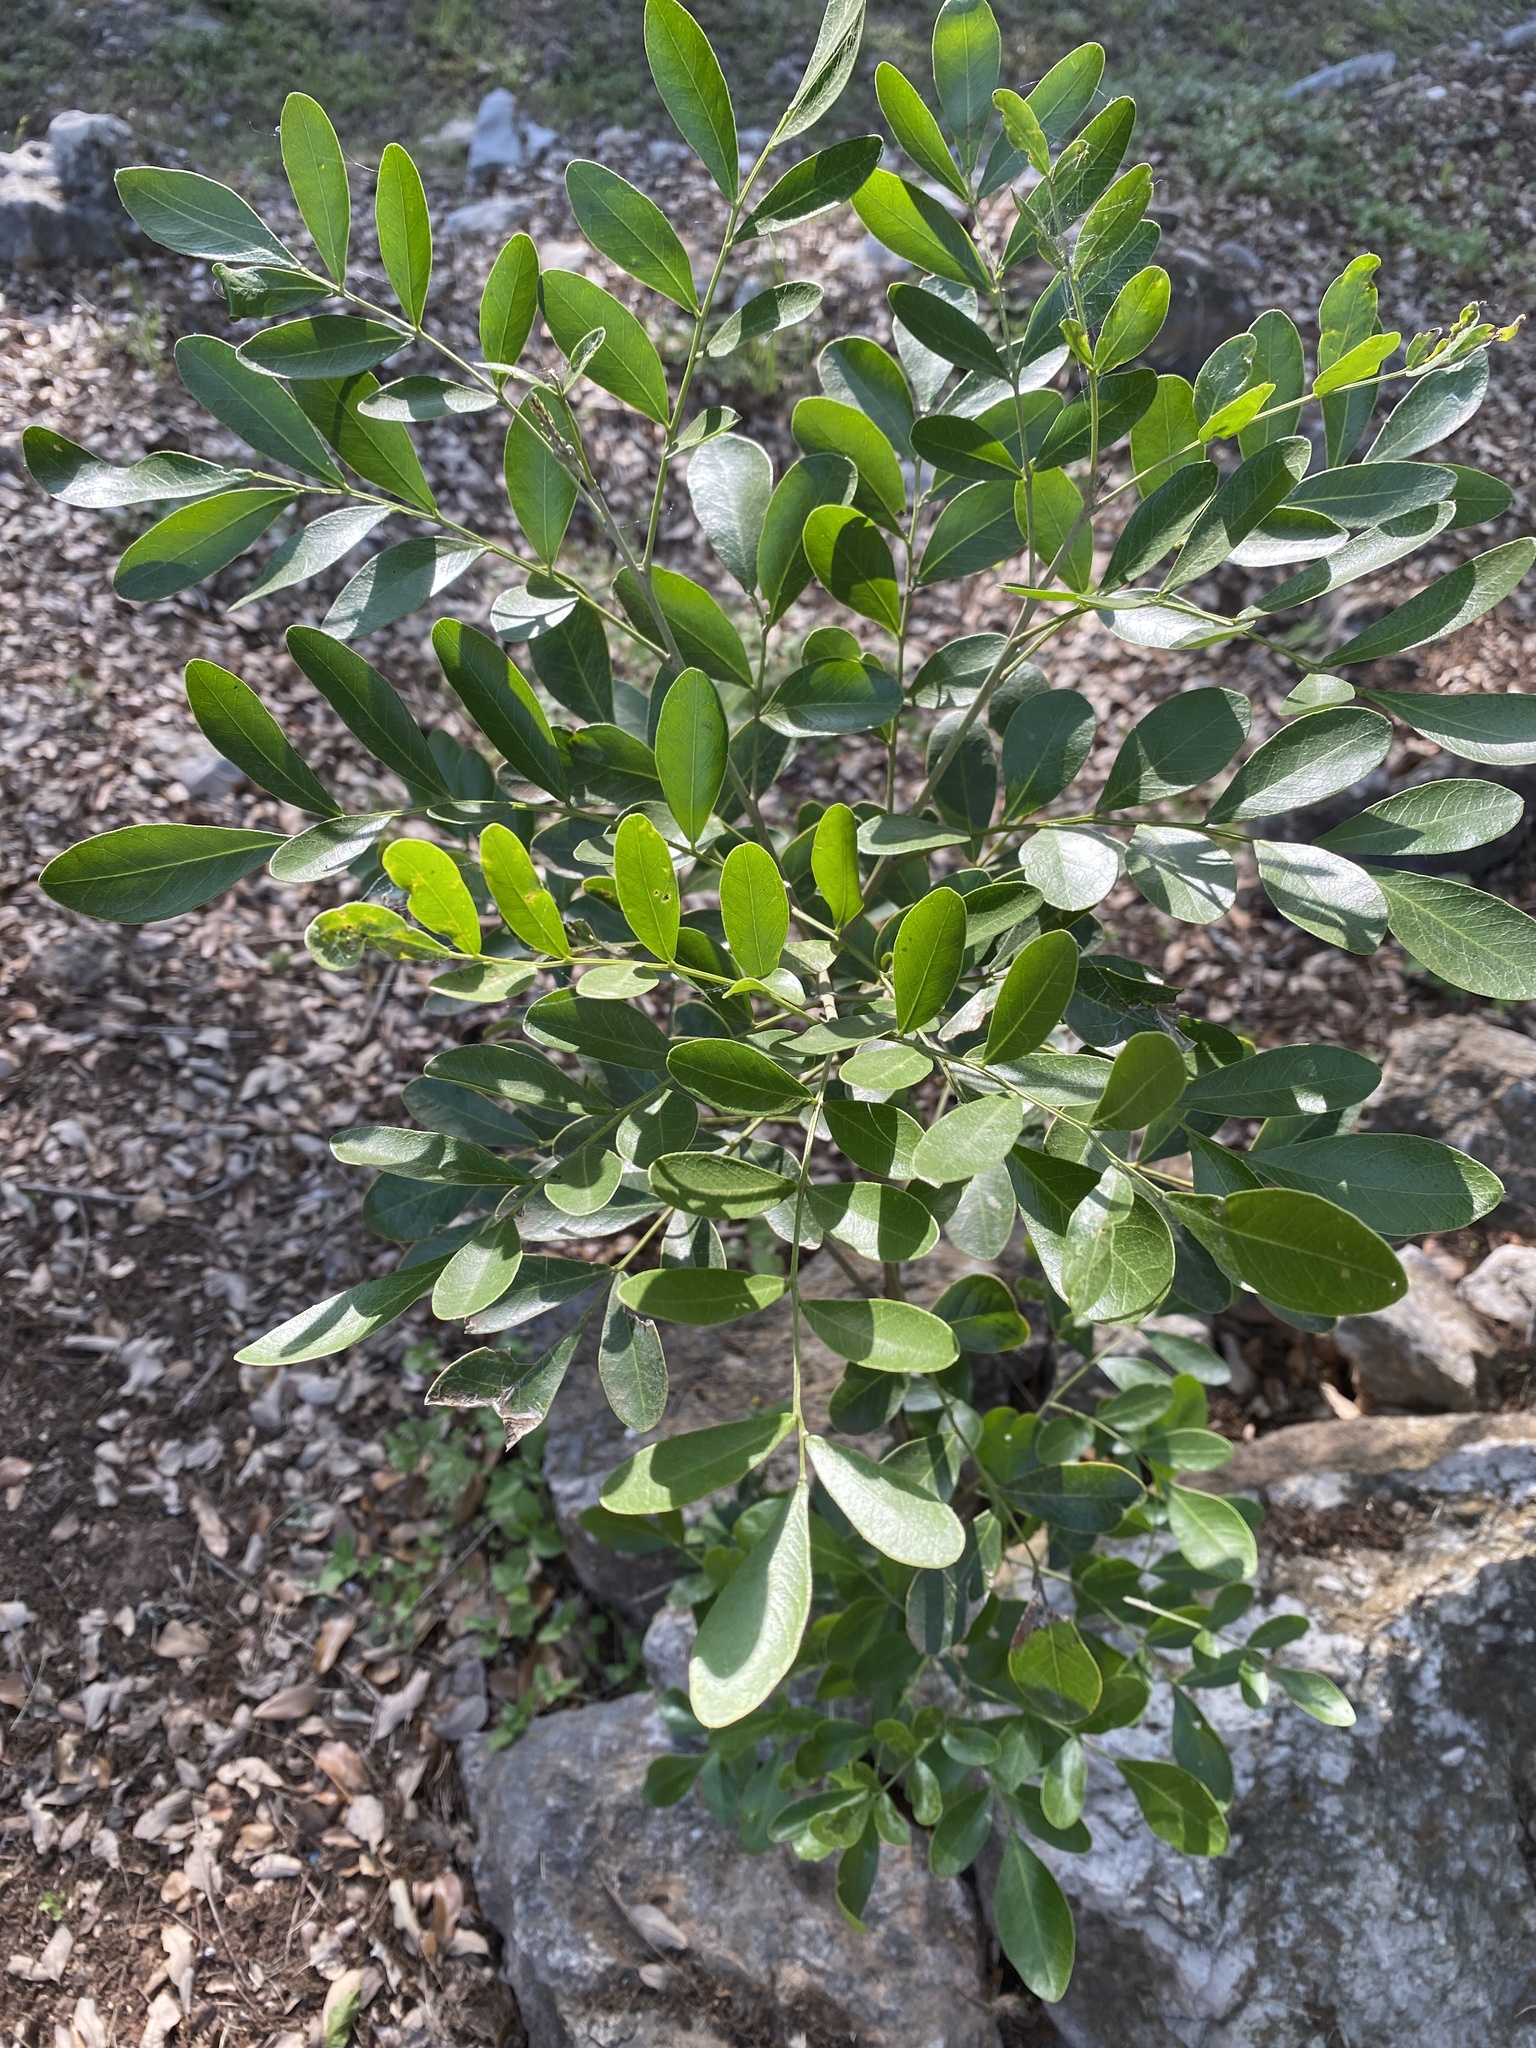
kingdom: Plantae
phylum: Tracheophyta
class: Magnoliopsida
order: Fabales
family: Fabaceae
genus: Dermatophyllum
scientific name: Dermatophyllum secundiflorum
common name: Texas-mountain-laurel
